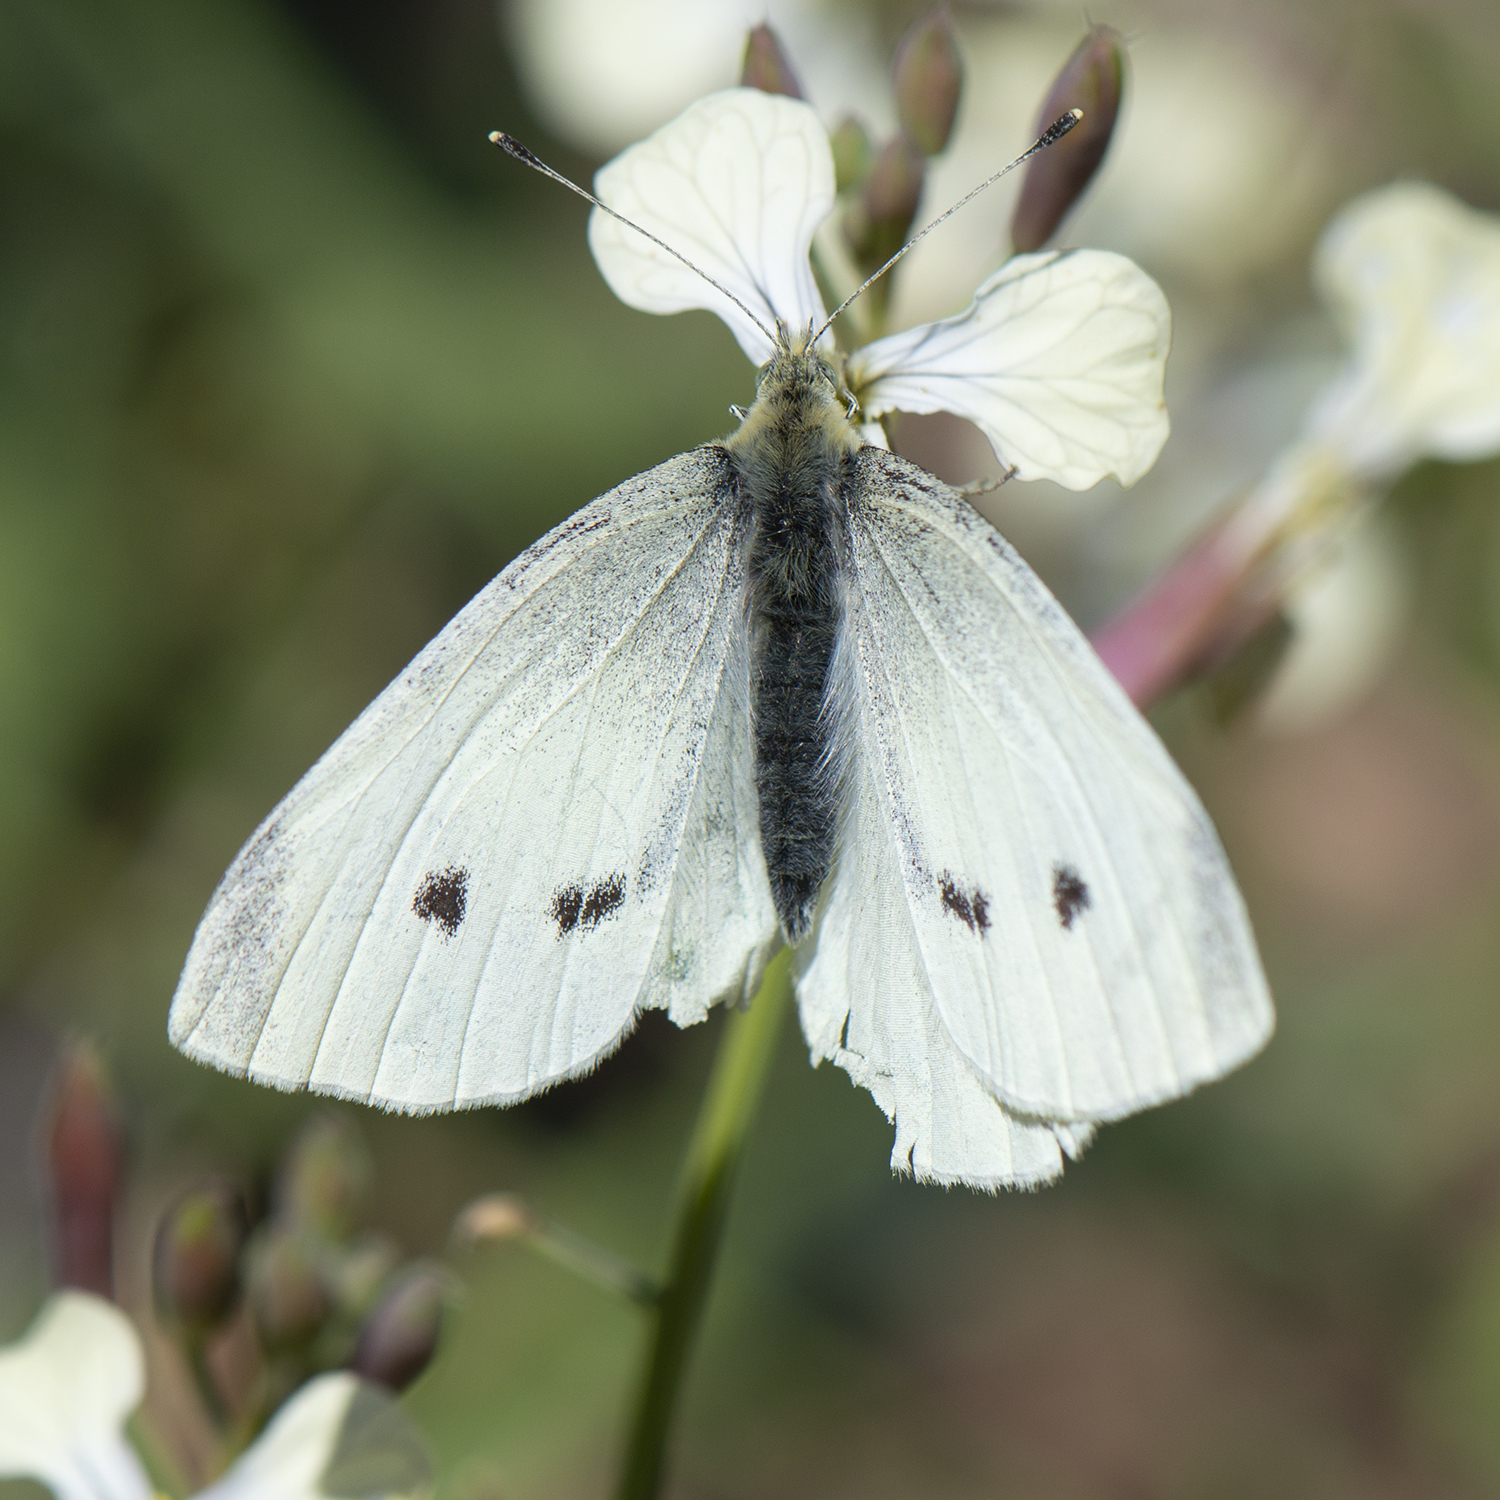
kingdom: Animalia
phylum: Arthropoda
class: Insecta
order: Lepidoptera
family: Pieridae
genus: Pieris
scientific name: Pieris rapae
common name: Small white
